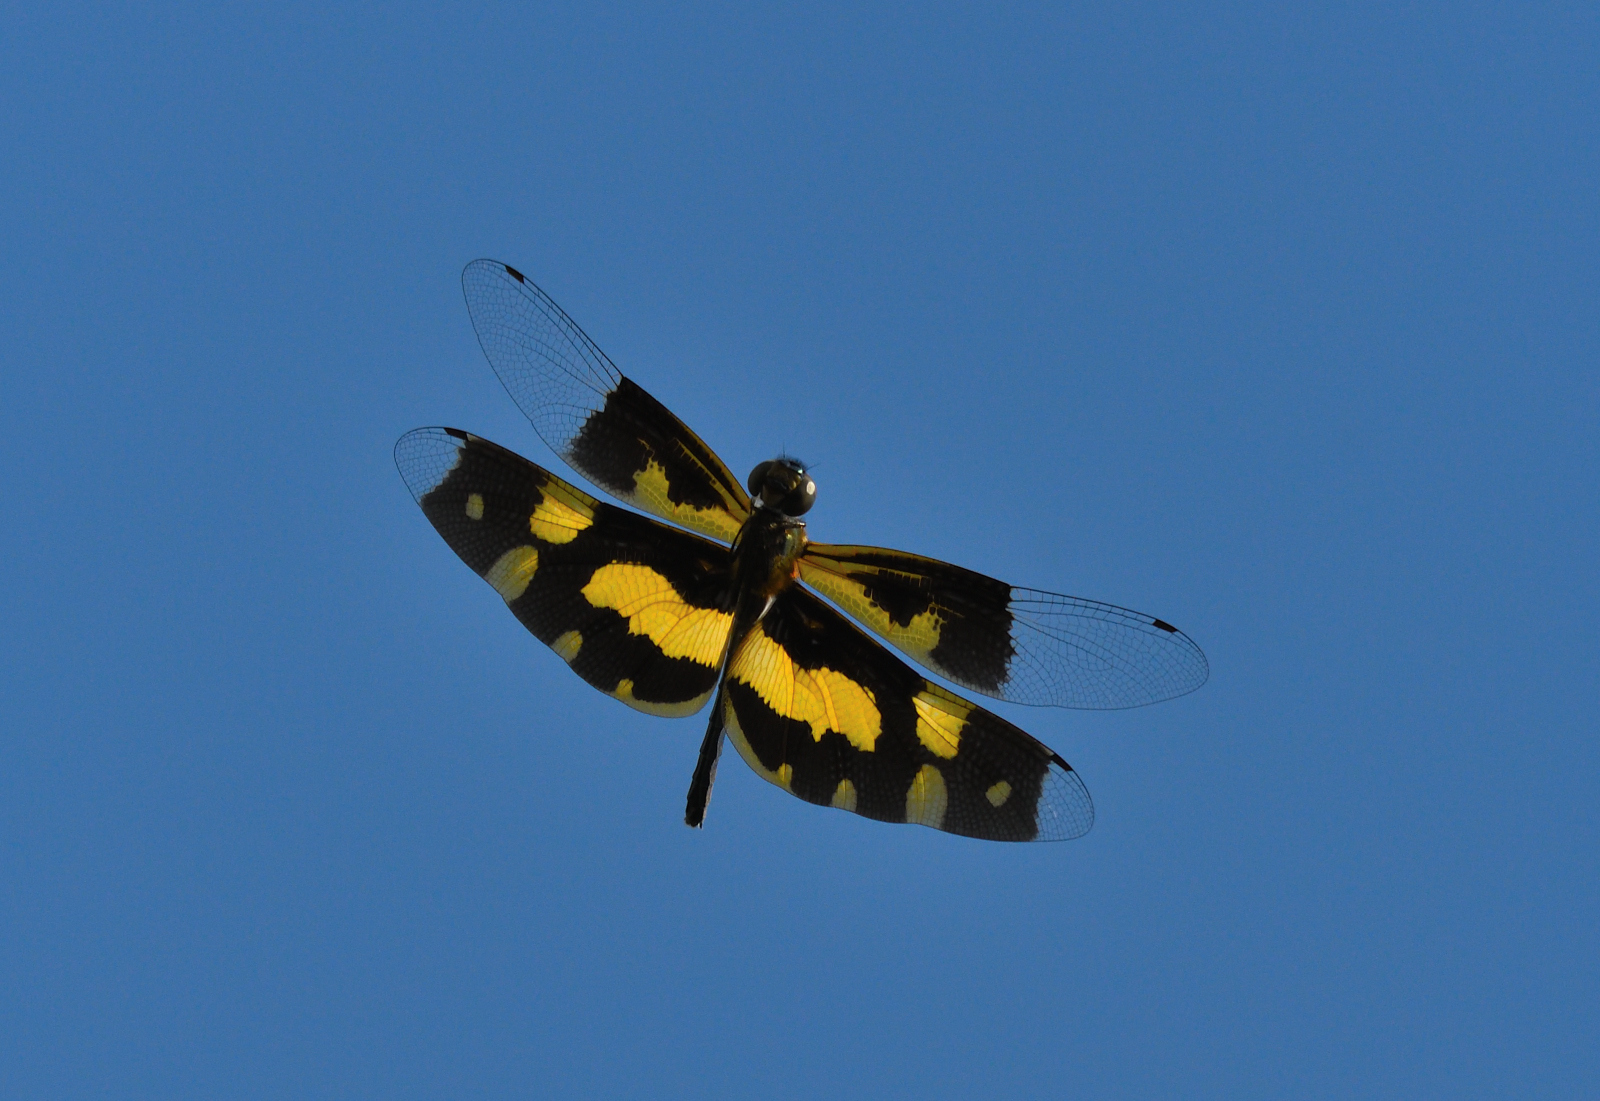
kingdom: Animalia
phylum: Arthropoda
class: Insecta
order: Odonata
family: Libellulidae
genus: Rhyothemis
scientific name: Rhyothemis variegata
